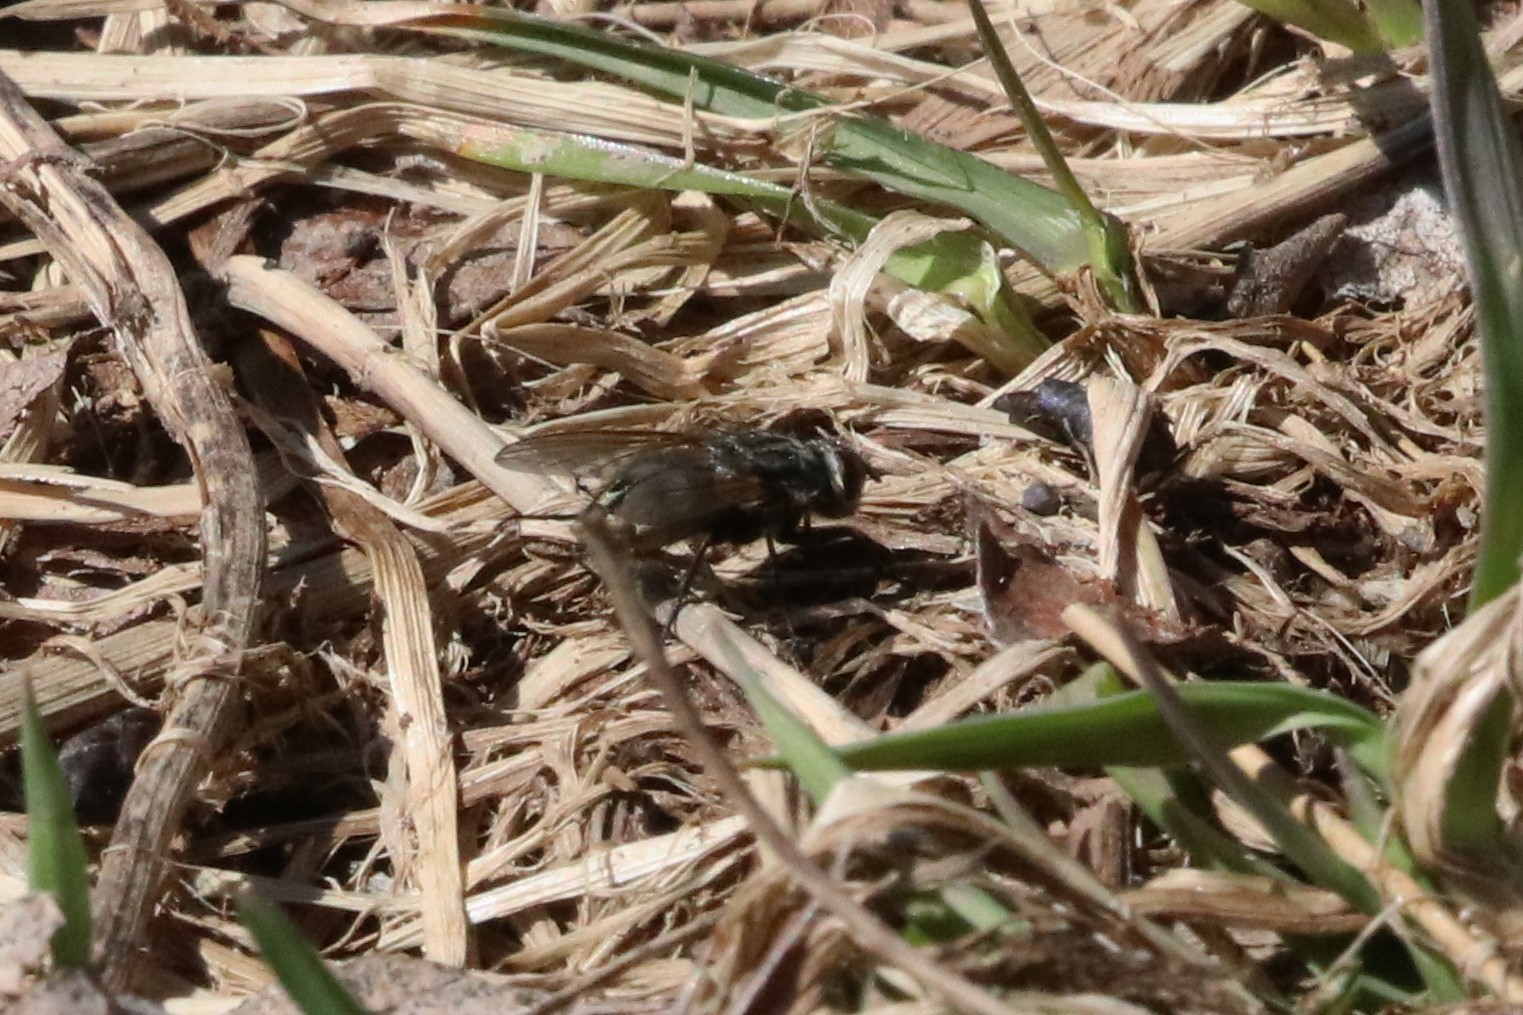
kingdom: Animalia
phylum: Arthropoda
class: Insecta
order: Diptera
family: Polleniidae
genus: Pollenia
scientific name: Pollenia vagabunda
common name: Vagabund cluster fly
